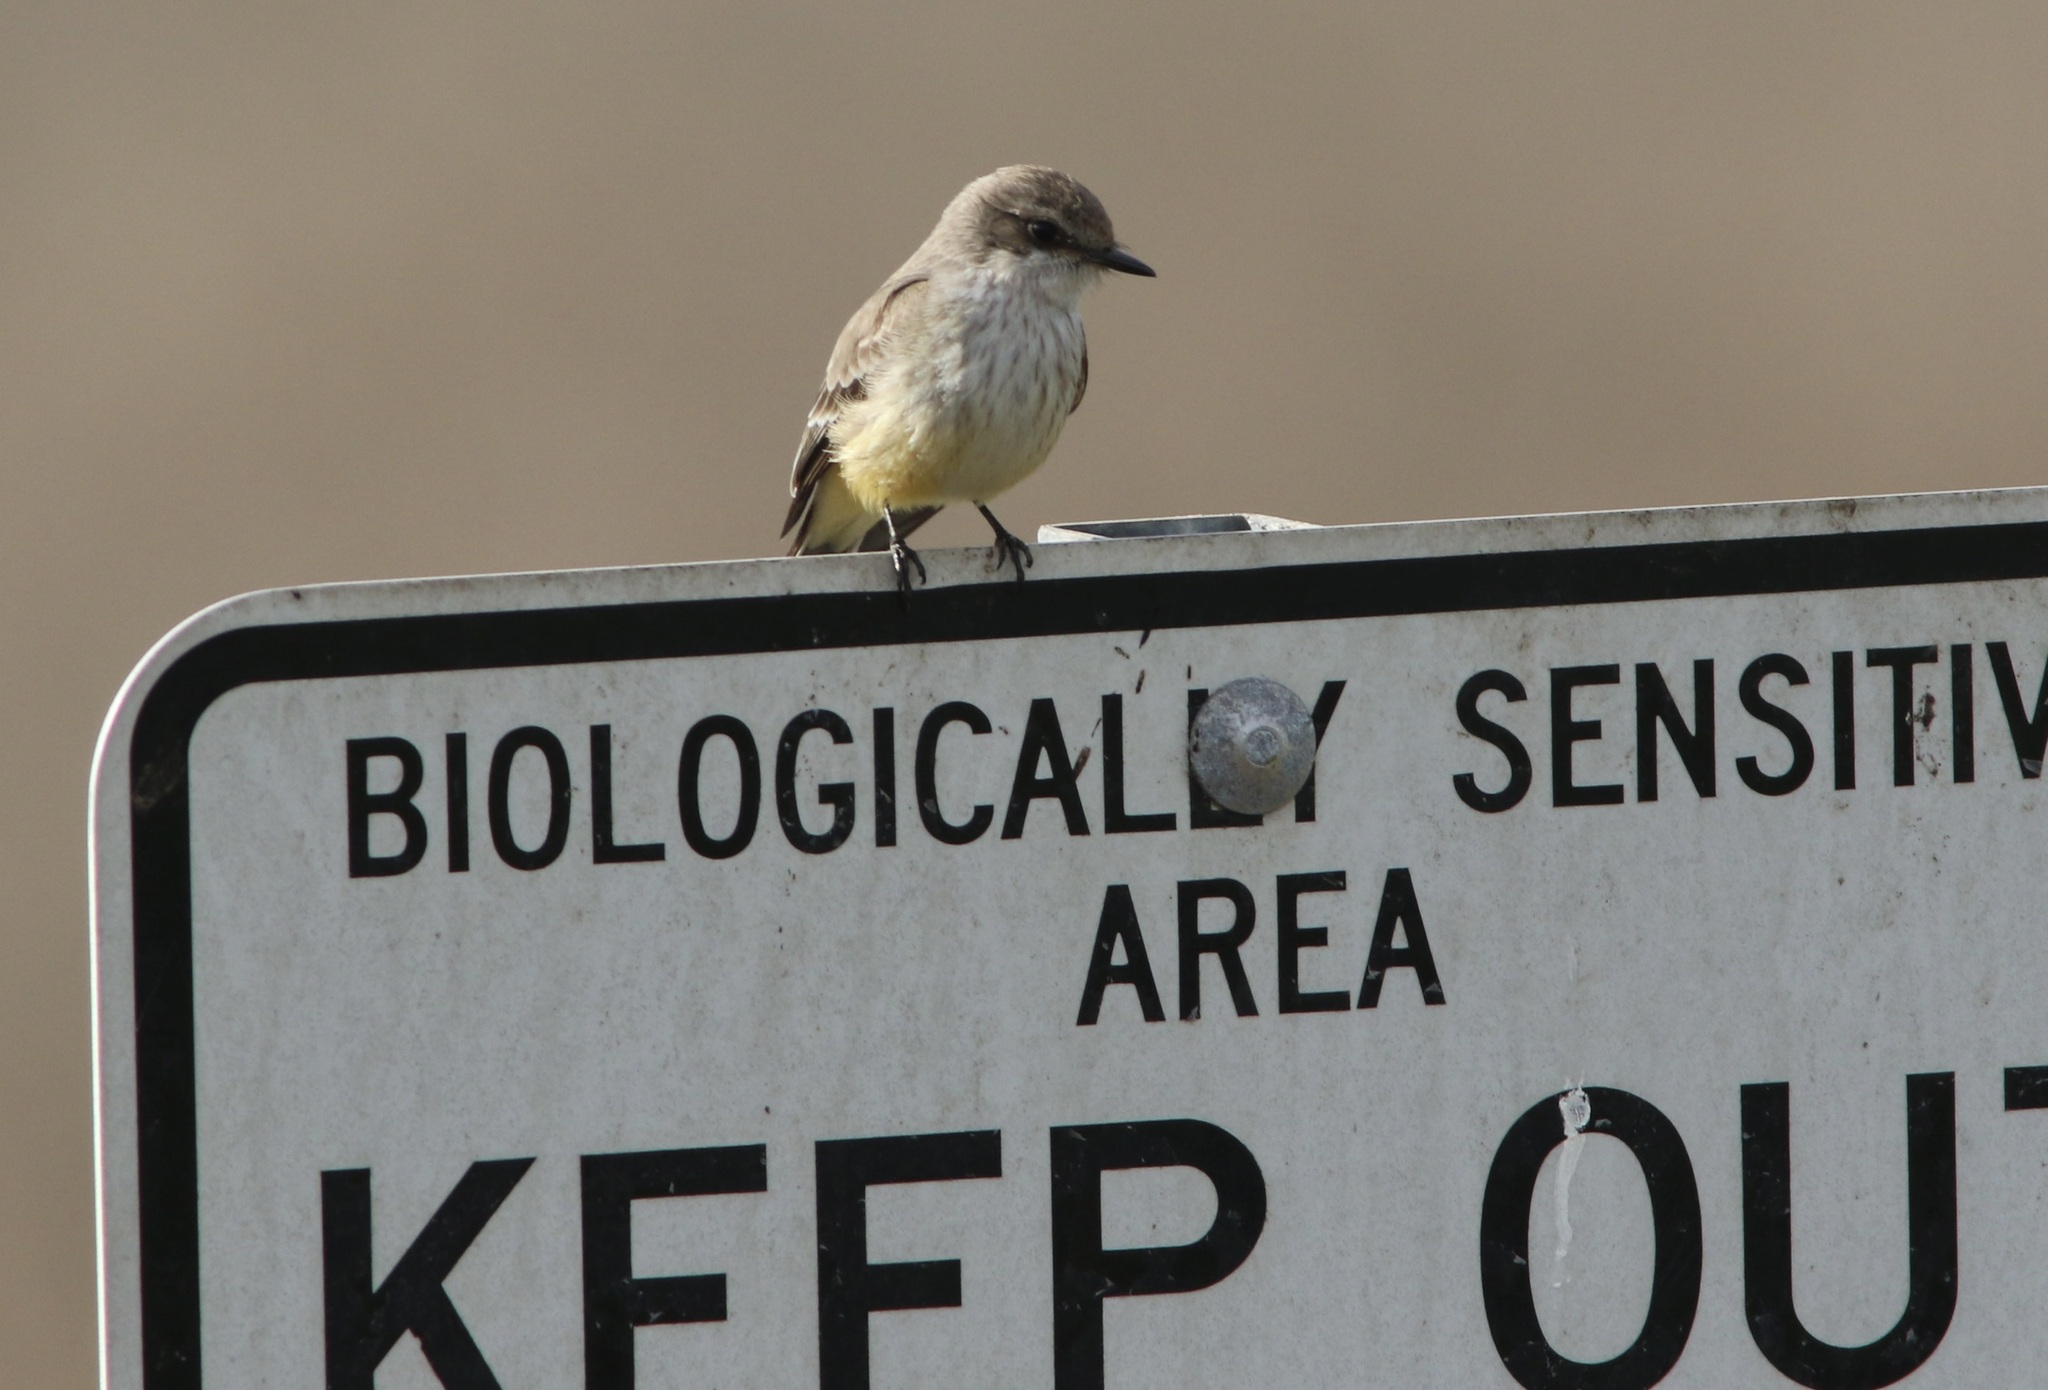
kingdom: Animalia
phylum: Chordata
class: Aves
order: Passeriformes
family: Tyrannidae
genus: Pyrocephalus
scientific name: Pyrocephalus rubinus
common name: Vermilion flycatcher
